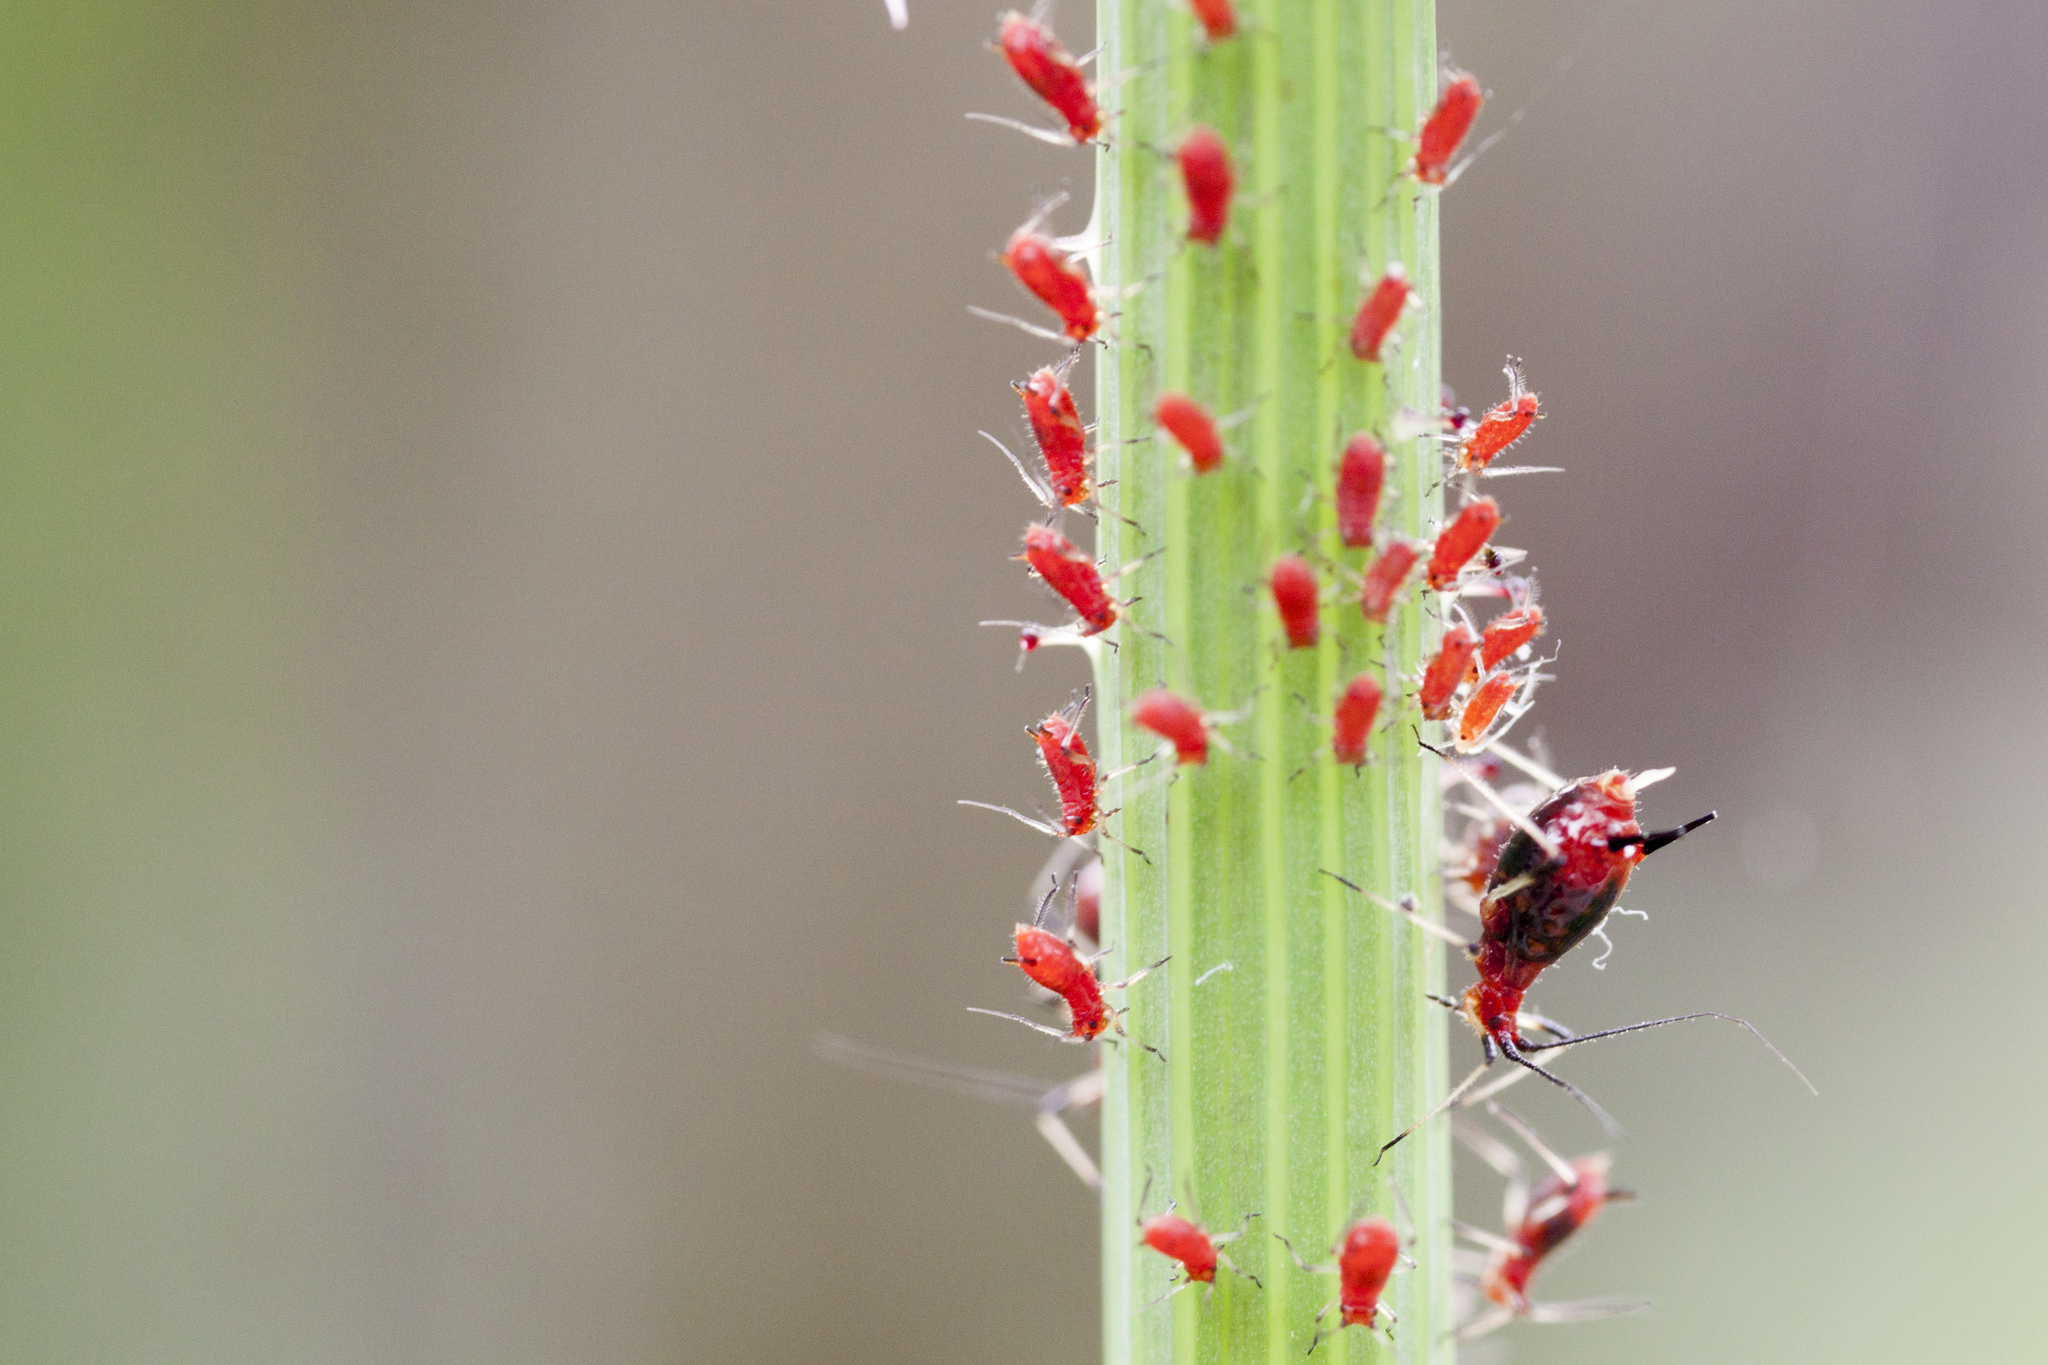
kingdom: Animalia
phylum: Arthropoda
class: Insecta
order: Hemiptera
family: Aphididae
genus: Uroleucon
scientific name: Uroleucon formosanum
